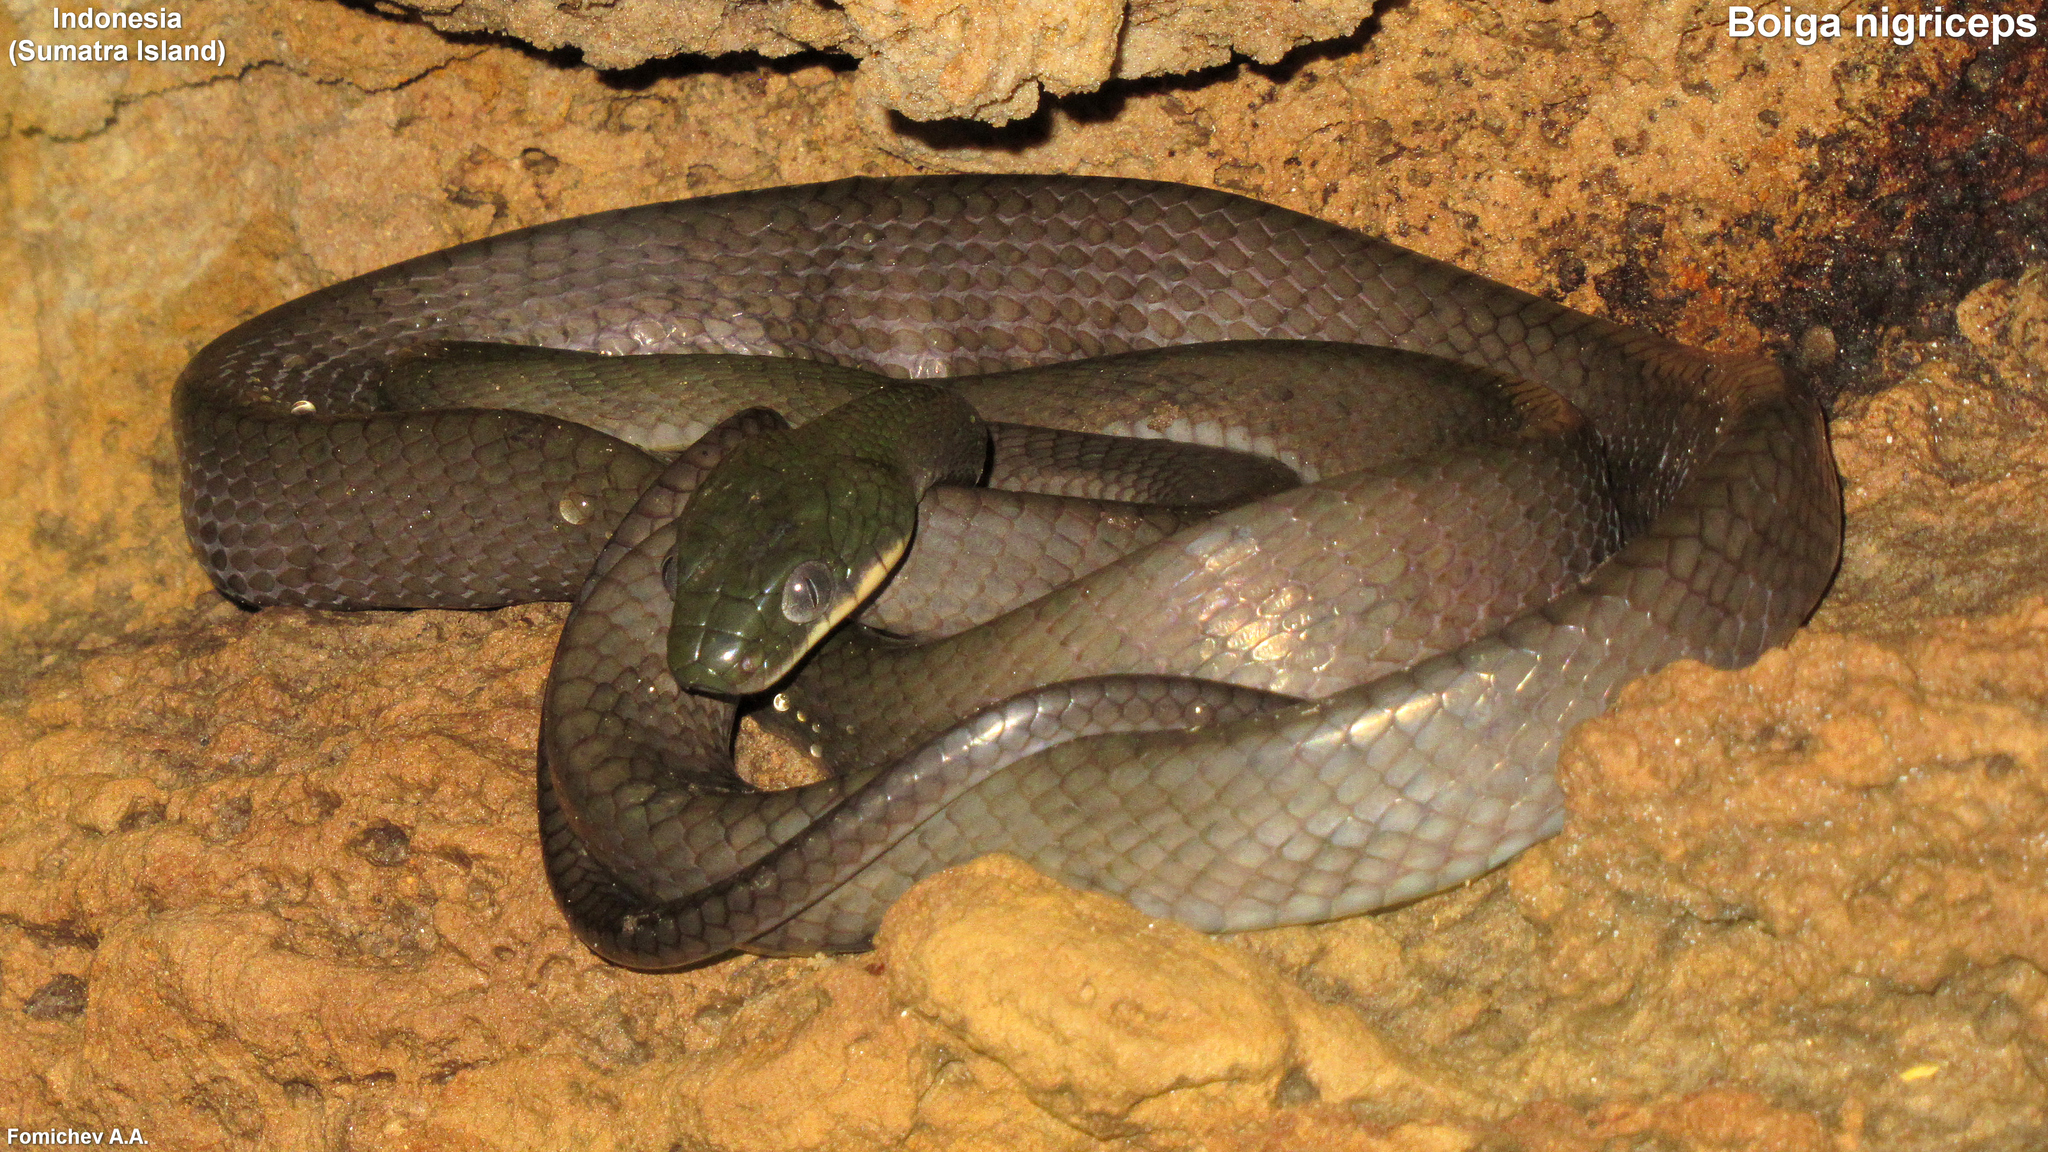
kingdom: Animalia
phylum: Chordata
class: Squamata
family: Colubridae
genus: Boiga
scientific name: Boiga nigriceps
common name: Black-headed cat snake
